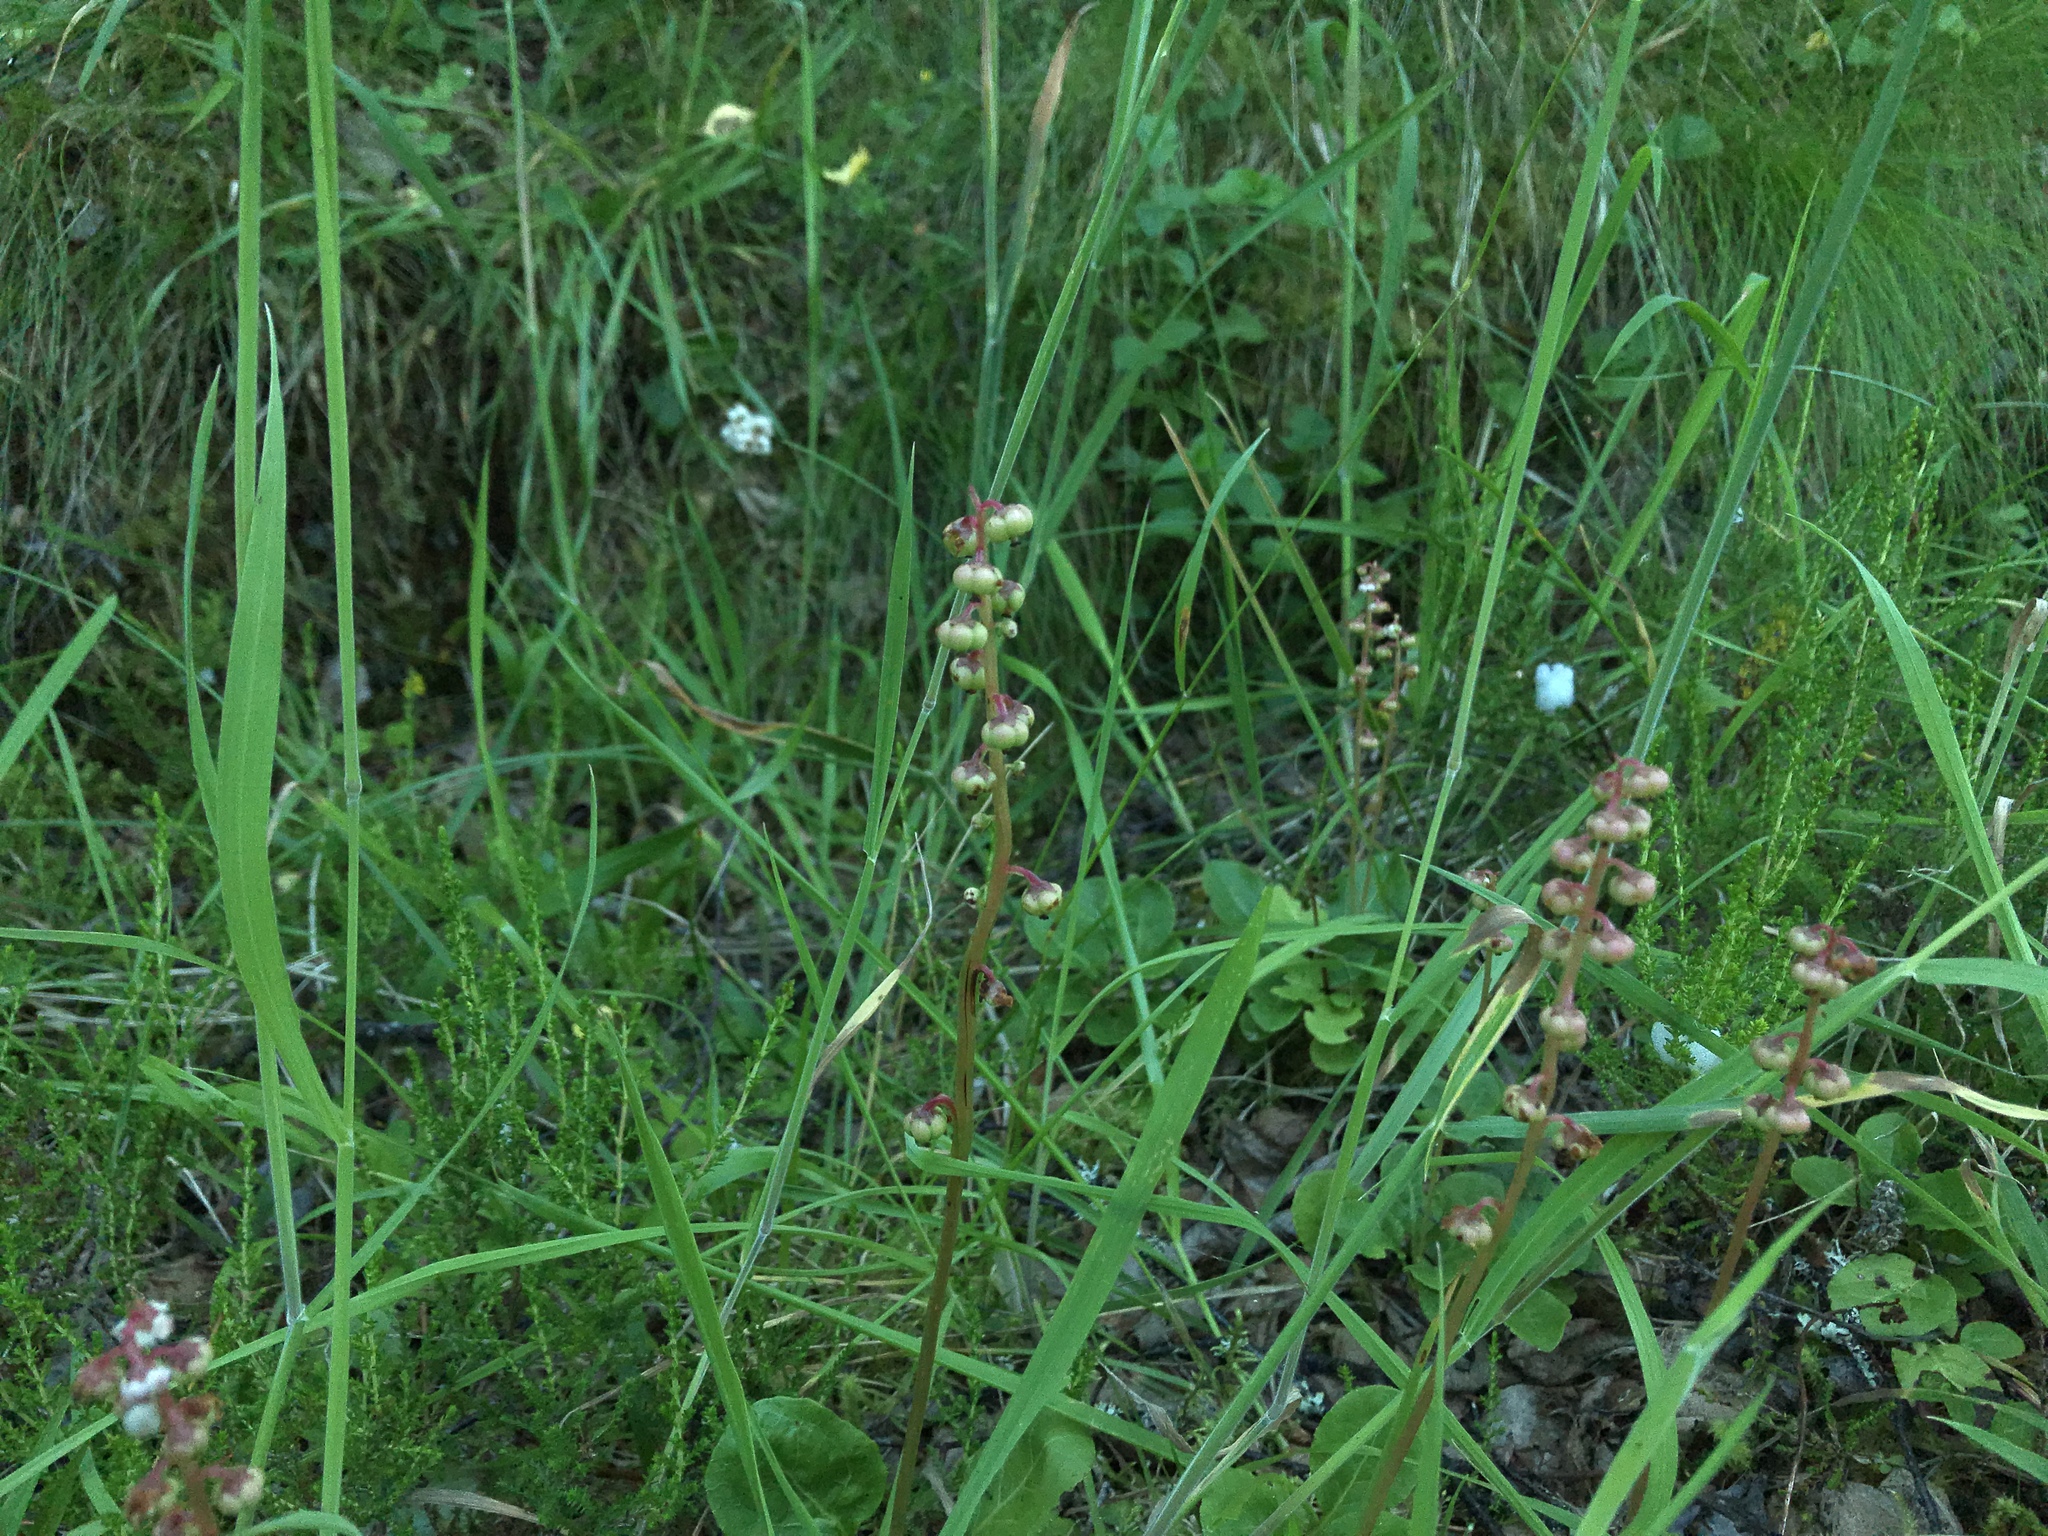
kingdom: Plantae
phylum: Tracheophyta
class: Magnoliopsida
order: Ericales
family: Ericaceae
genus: Pyrola
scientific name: Pyrola minor
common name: Common wintergreen
